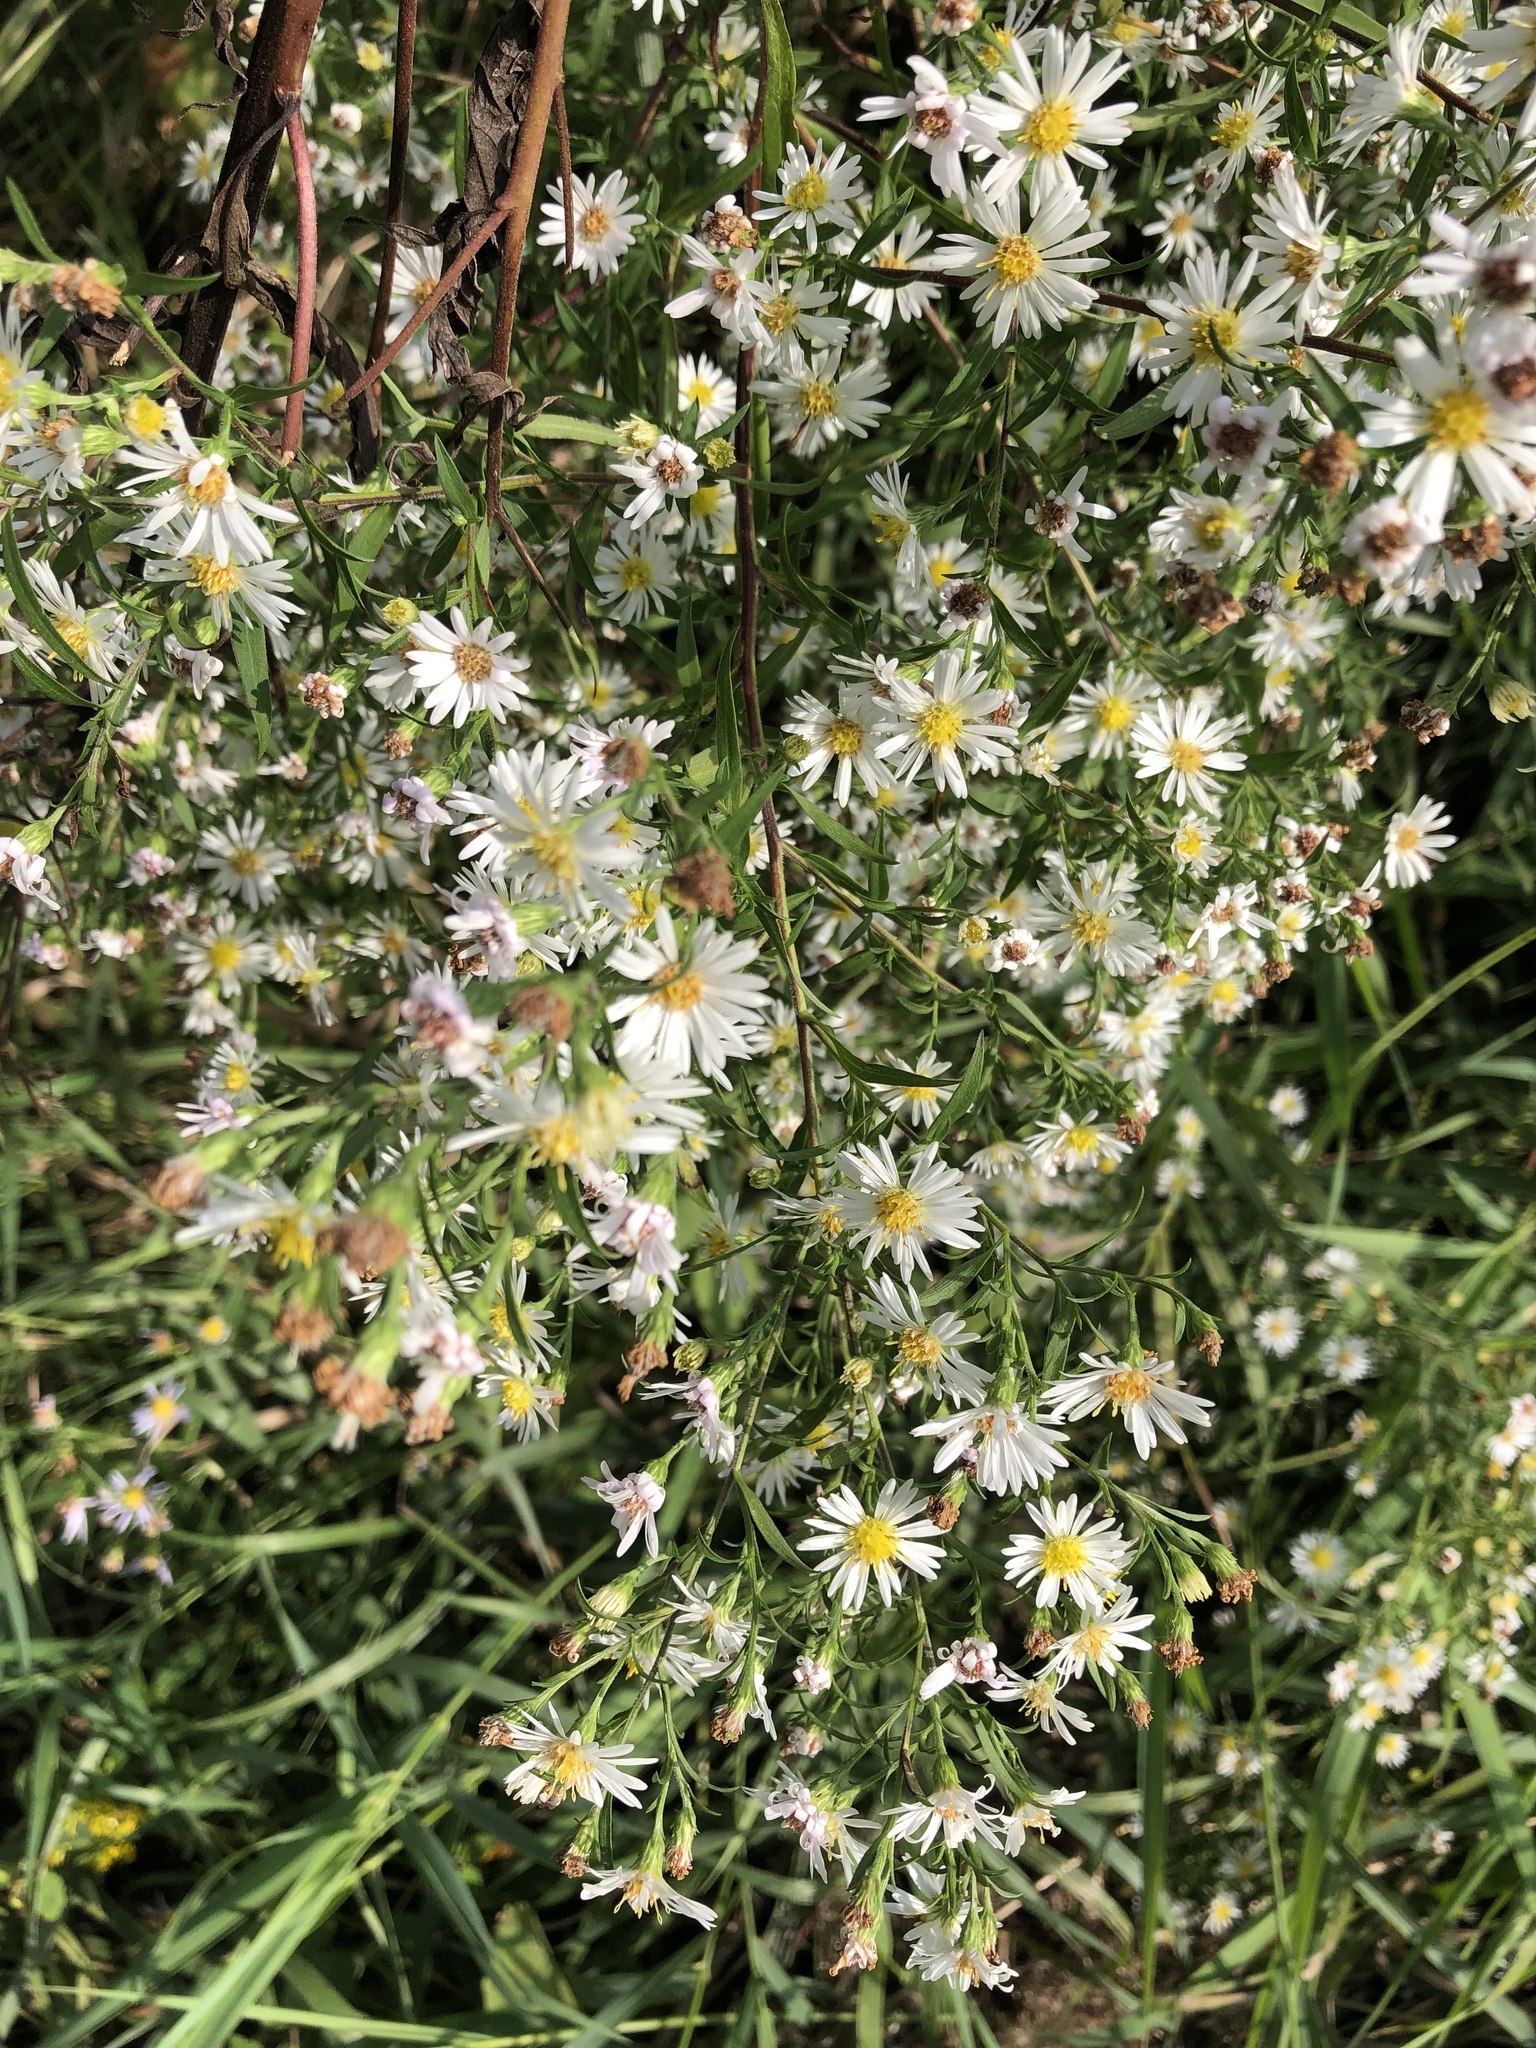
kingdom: Plantae
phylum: Tracheophyta
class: Magnoliopsida
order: Asterales
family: Asteraceae
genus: Symphyotrichum
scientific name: Symphyotrichum lanceolatum
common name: Panicled aster
